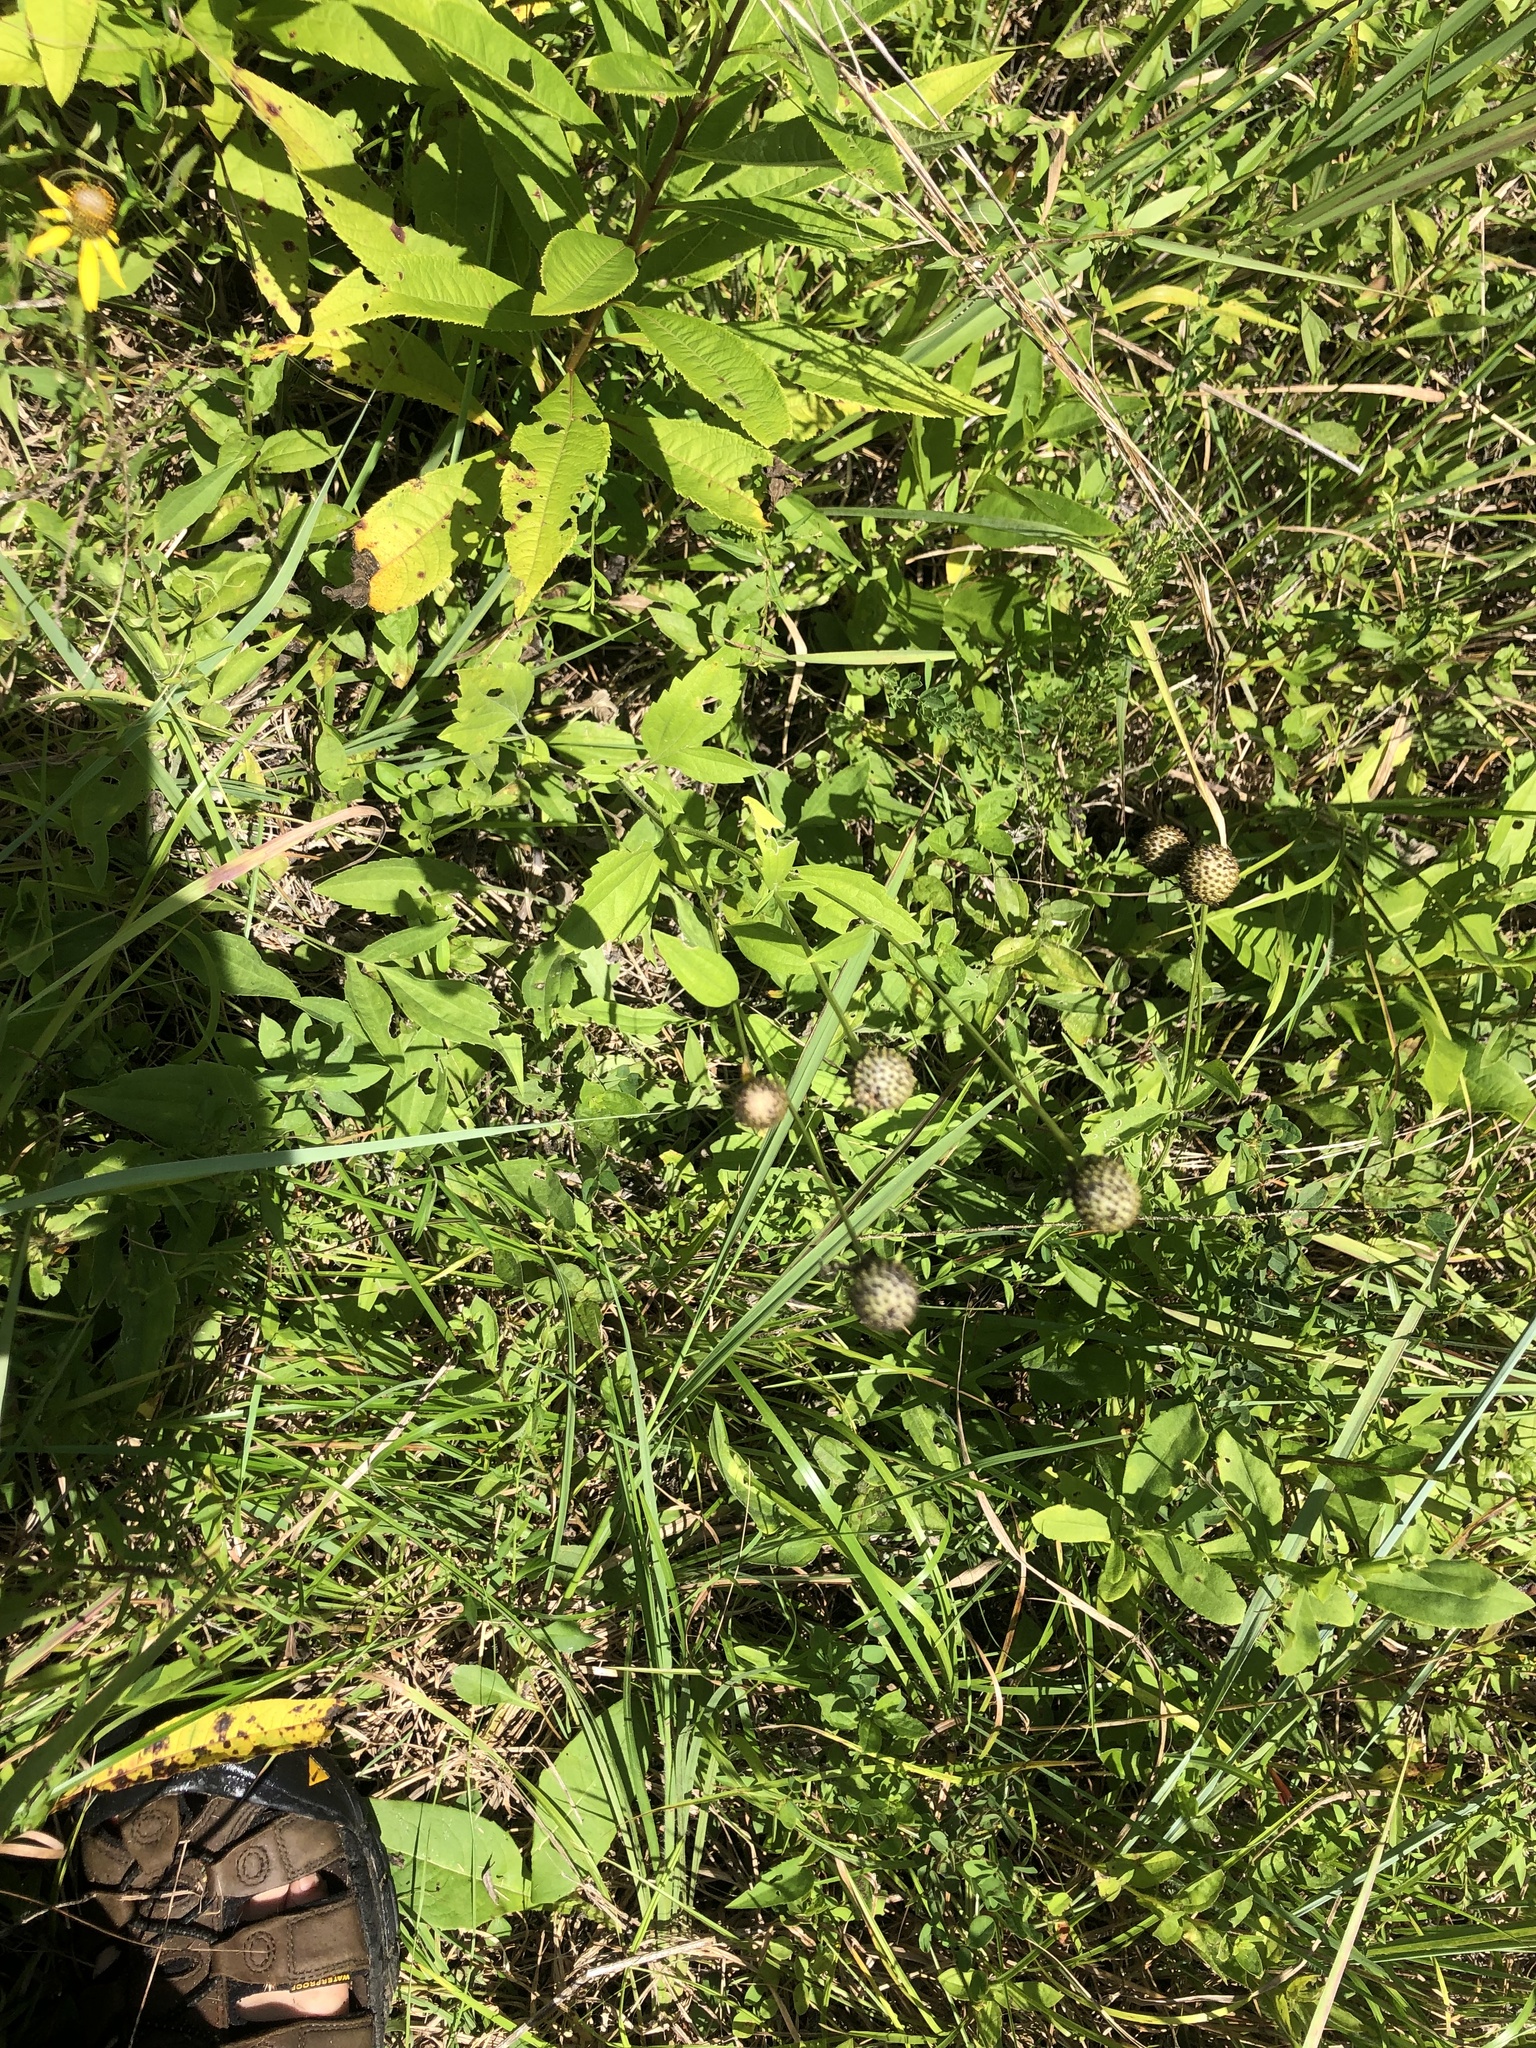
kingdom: Plantae
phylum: Tracheophyta
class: Magnoliopsida
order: Asterales
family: Asteraceae
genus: Ratibida
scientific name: Ratibida pinnata
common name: Drooping prairie-coneflower
